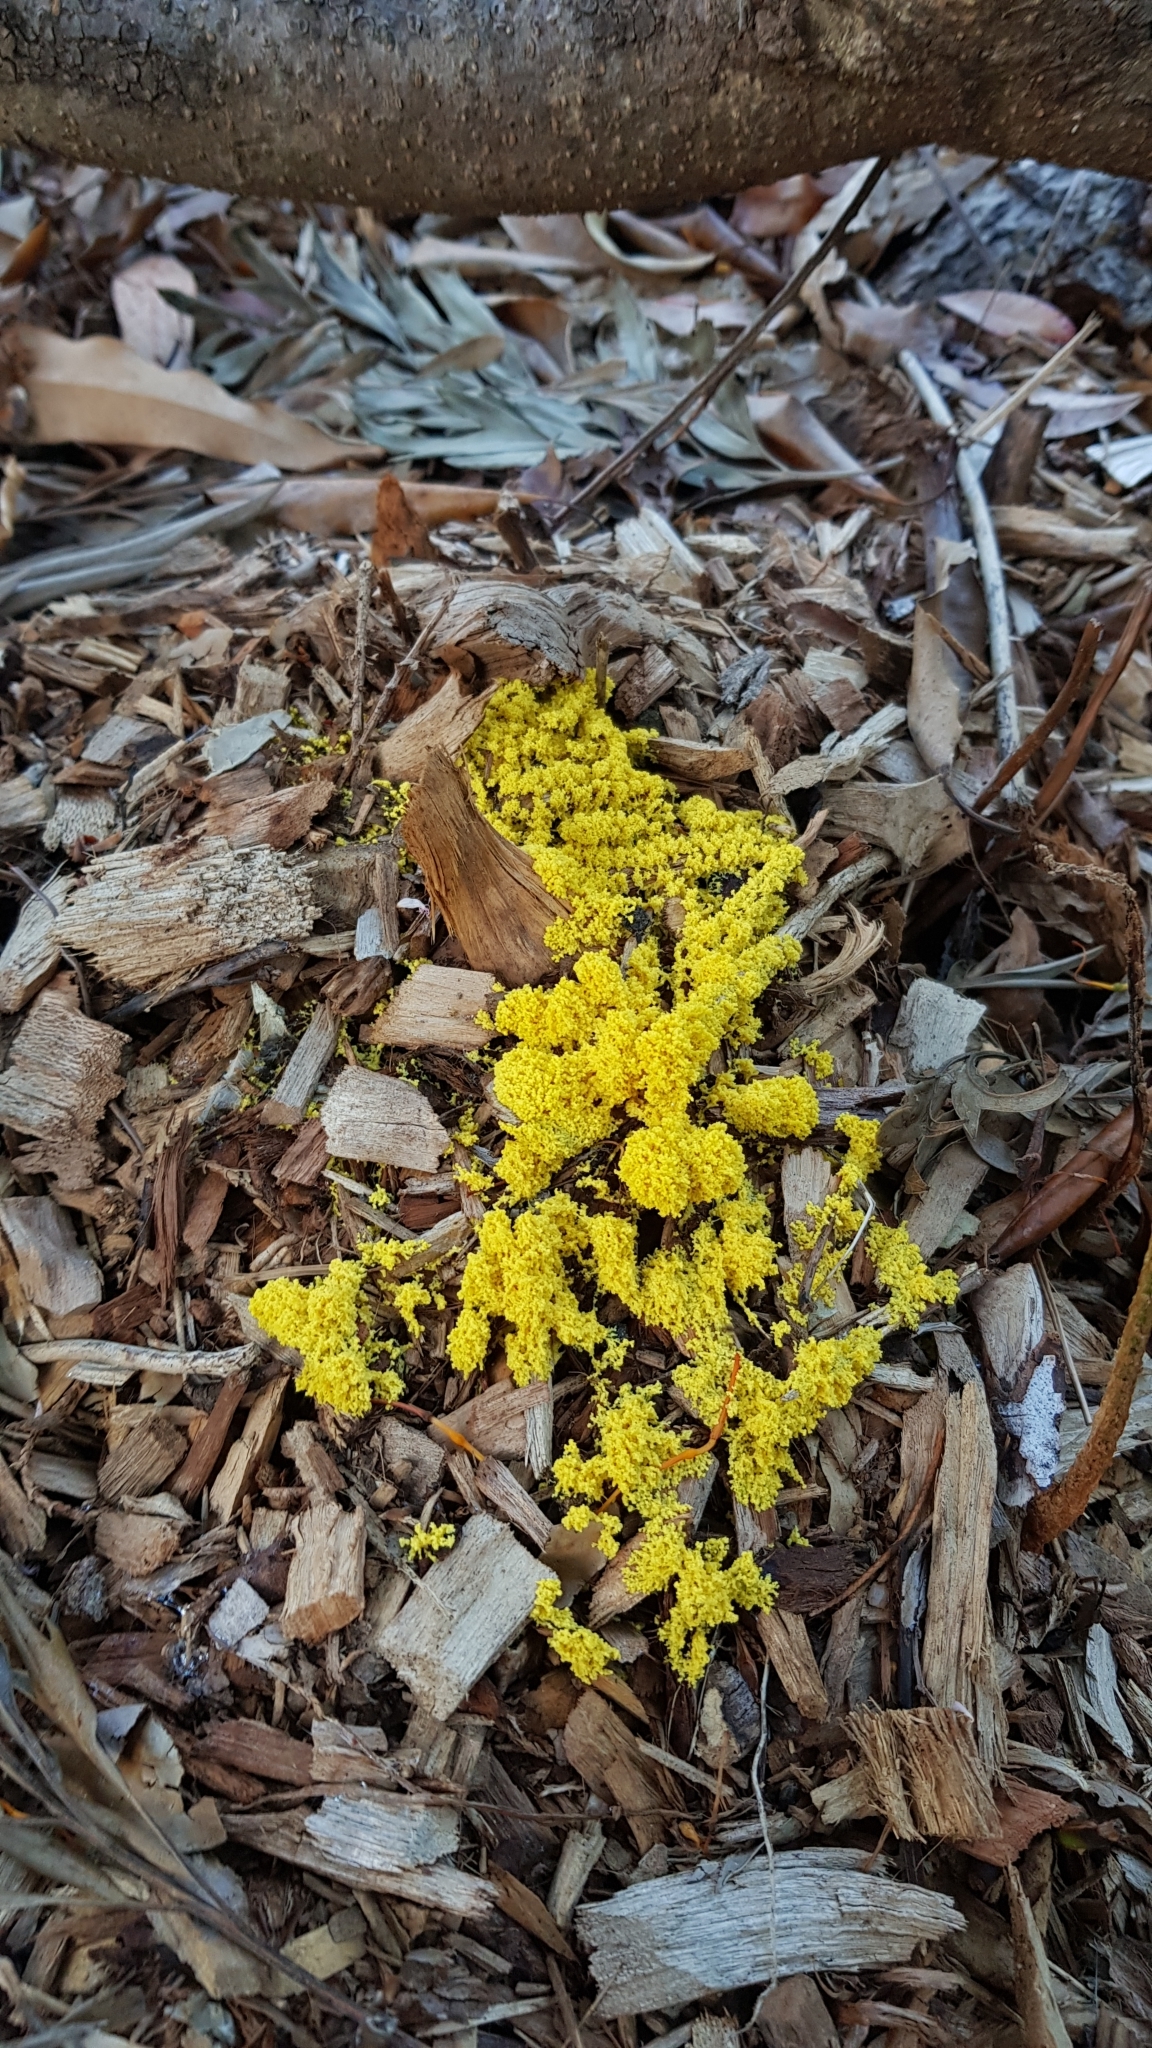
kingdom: Protozoa
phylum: Mycetozoa
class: Myxomycetes
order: Physarales
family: Physaraceae
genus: Fuligo
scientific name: Fuligo septica
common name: Dog vomit slime mold
